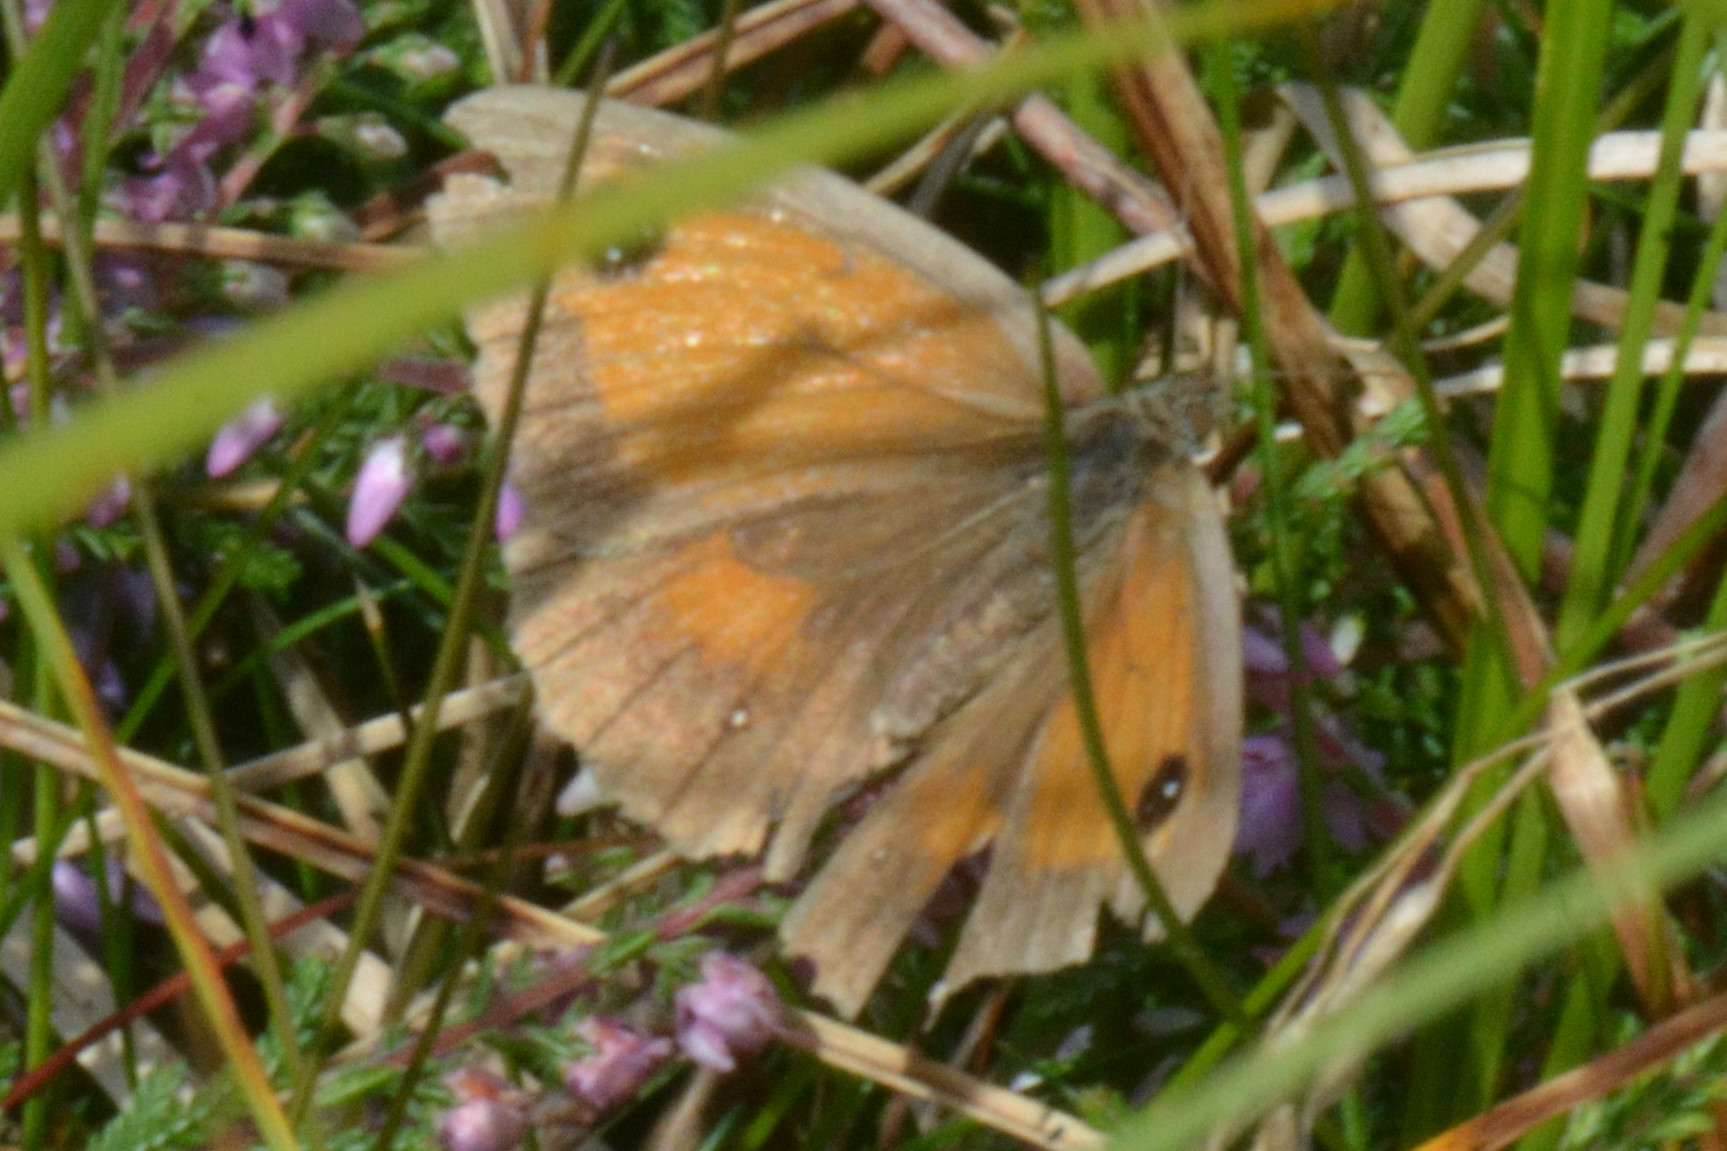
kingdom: Animalia
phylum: Arthropoda
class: Insecta
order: Lepidoptera
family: Nymphalidae
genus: Pyronia
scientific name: Pyronia tithonus
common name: Gatekeeper
